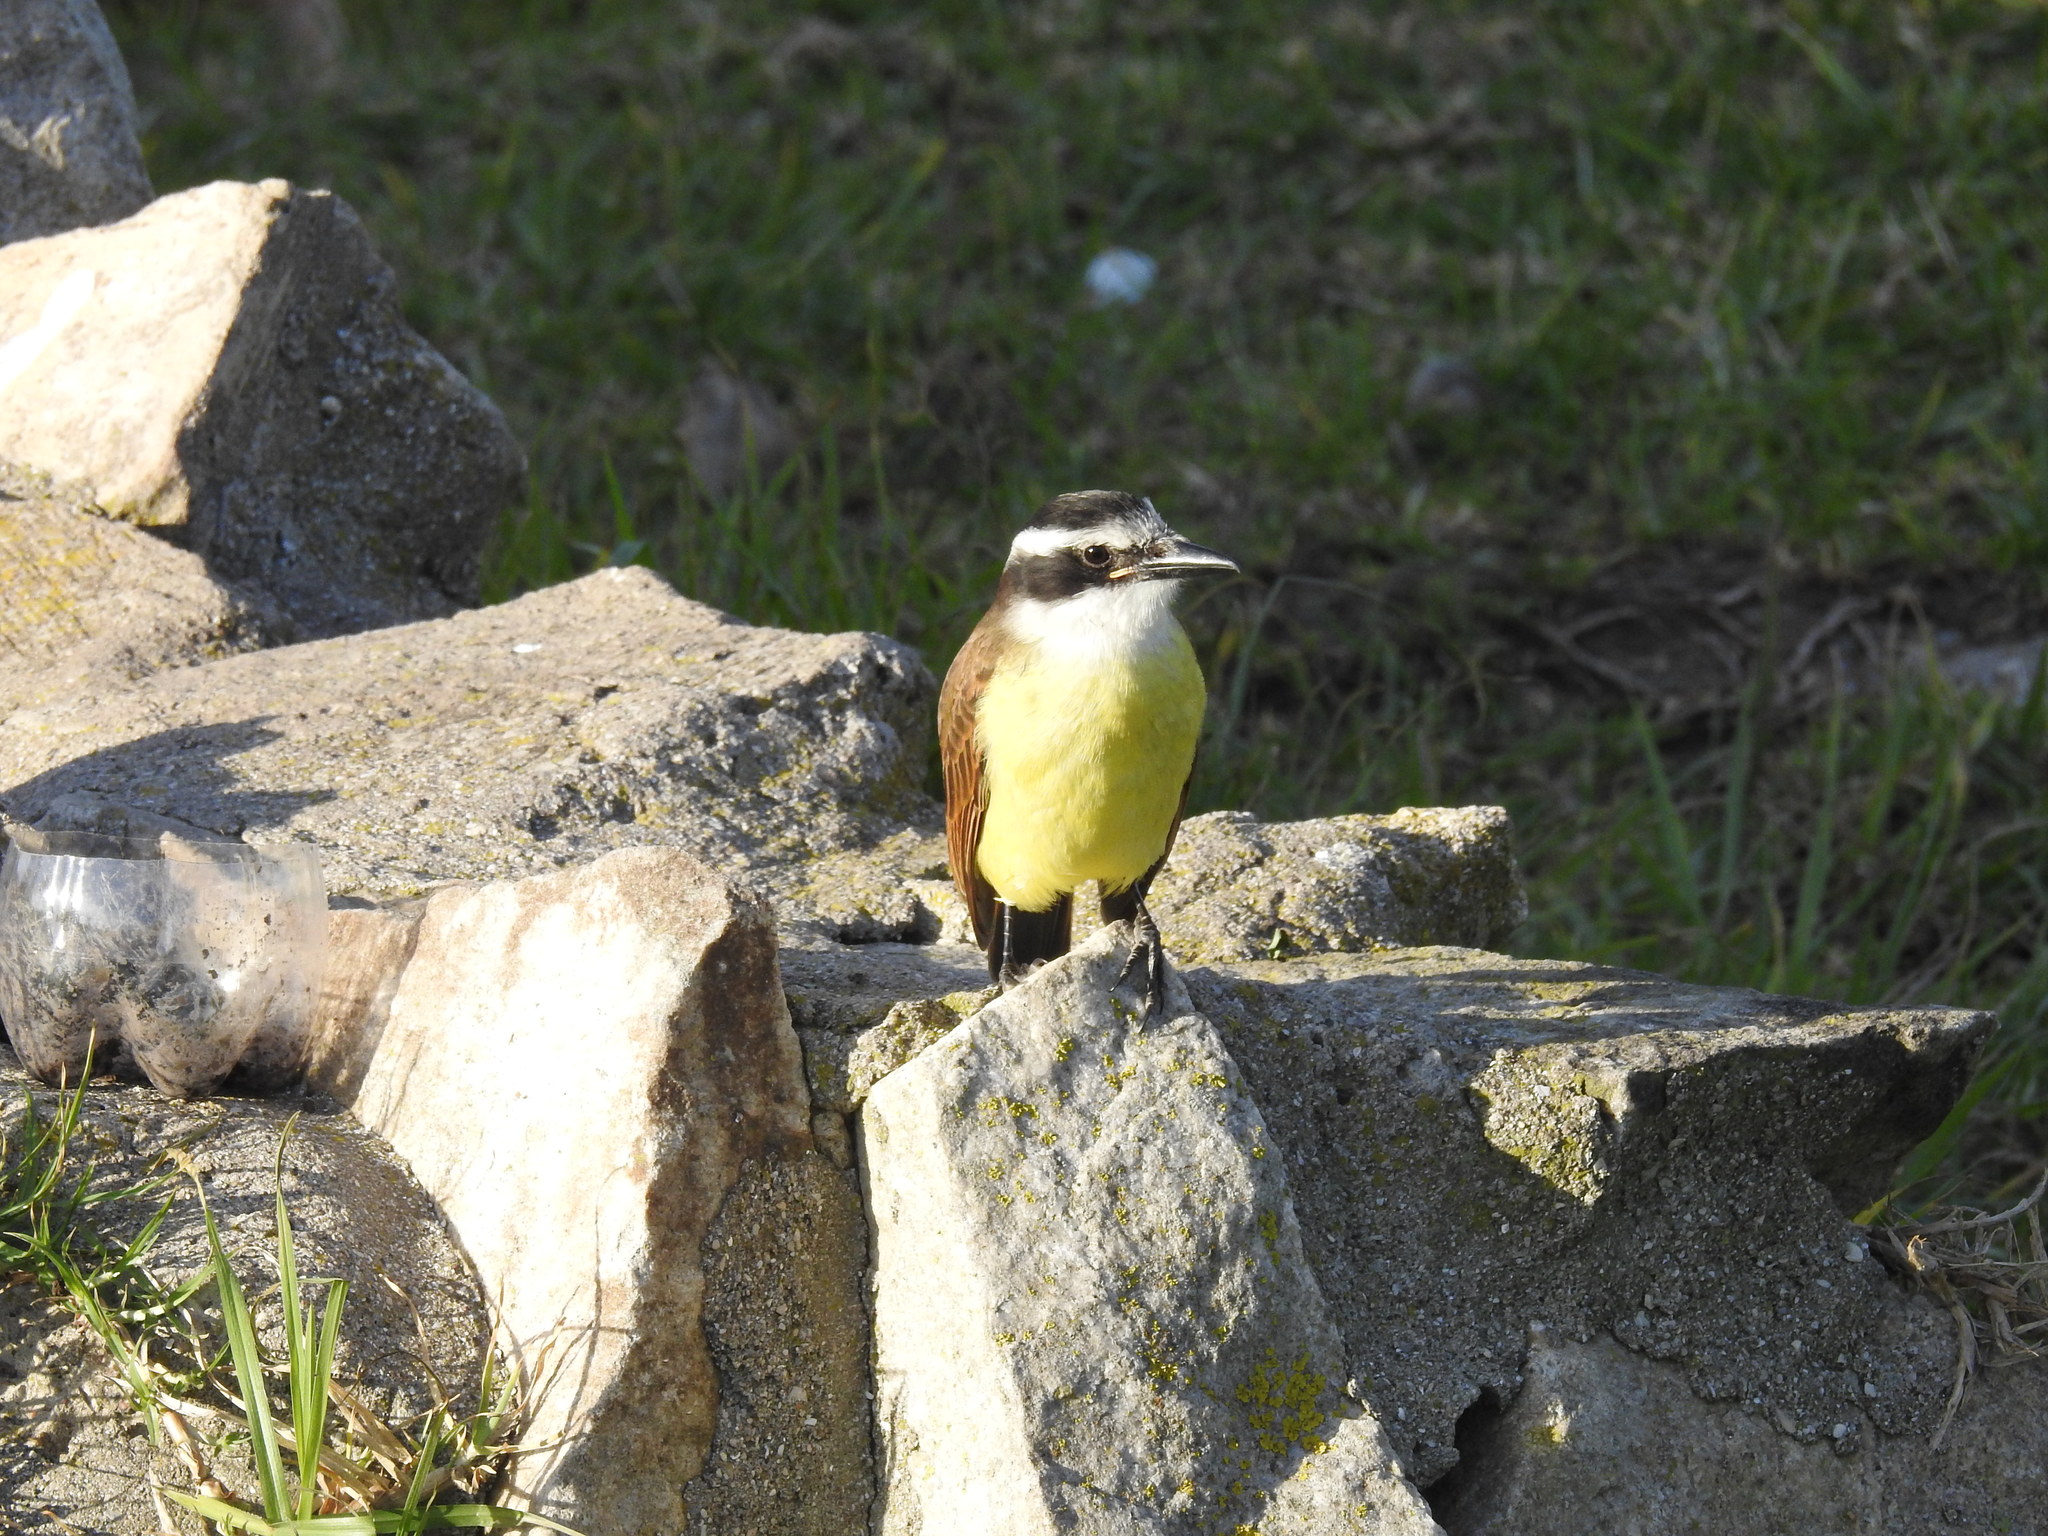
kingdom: Animalia
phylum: Chordata
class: Aves
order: Passeriformes
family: Tyrannidae
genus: Pitangus
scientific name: Pitangus sulphuratus
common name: Great kiskadee
